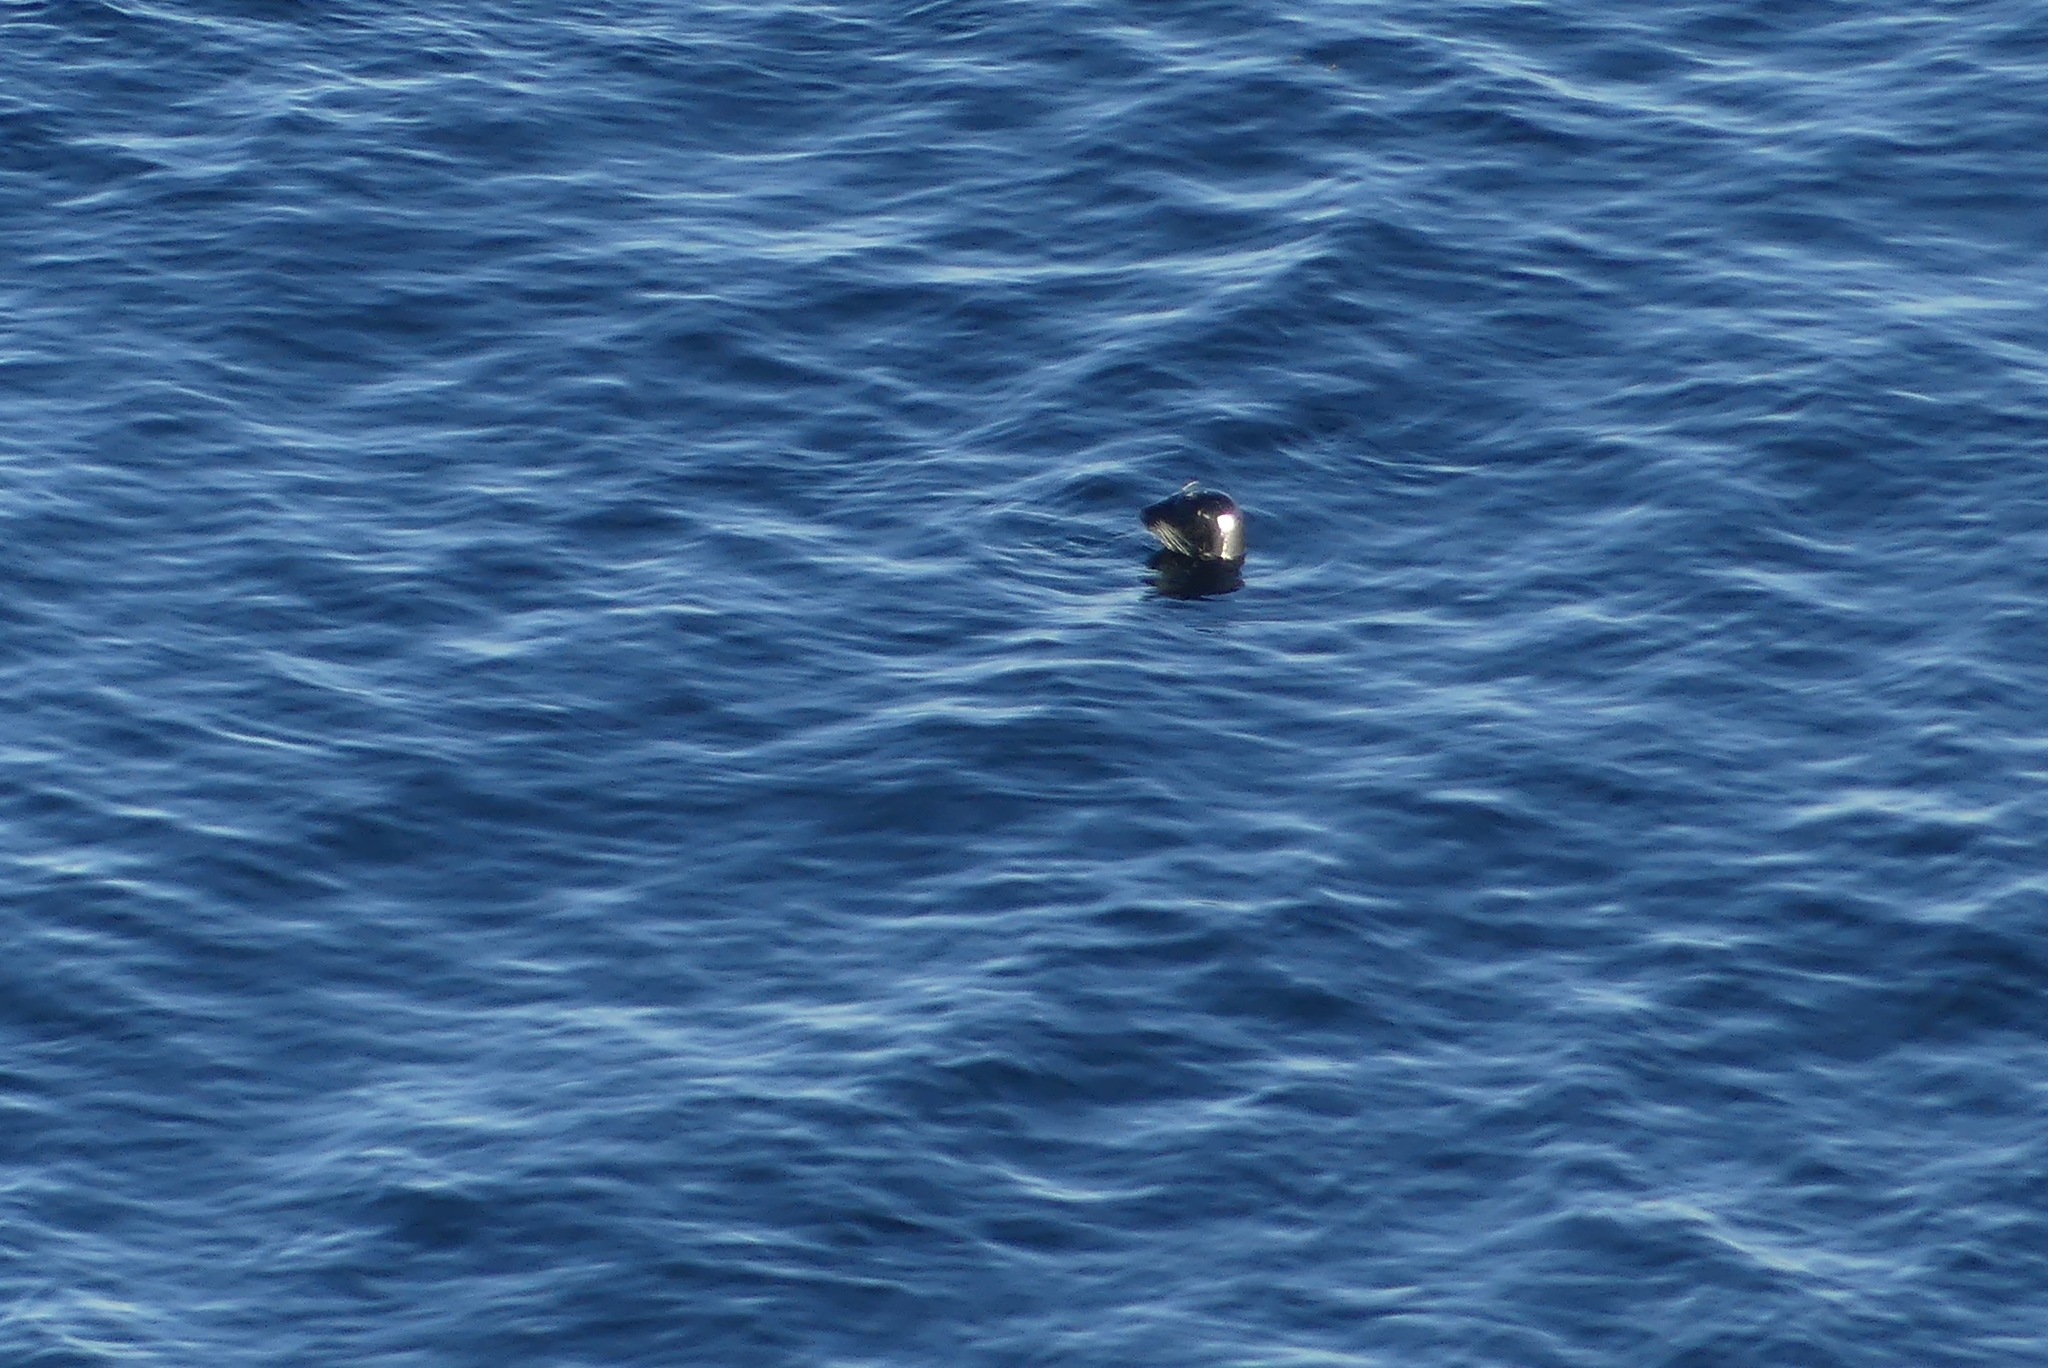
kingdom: Animalia
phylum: Chordata
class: Mammalia
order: Carnivora
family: Phocidae
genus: Phoca
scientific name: Phoca vitulina
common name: Harbor seal
